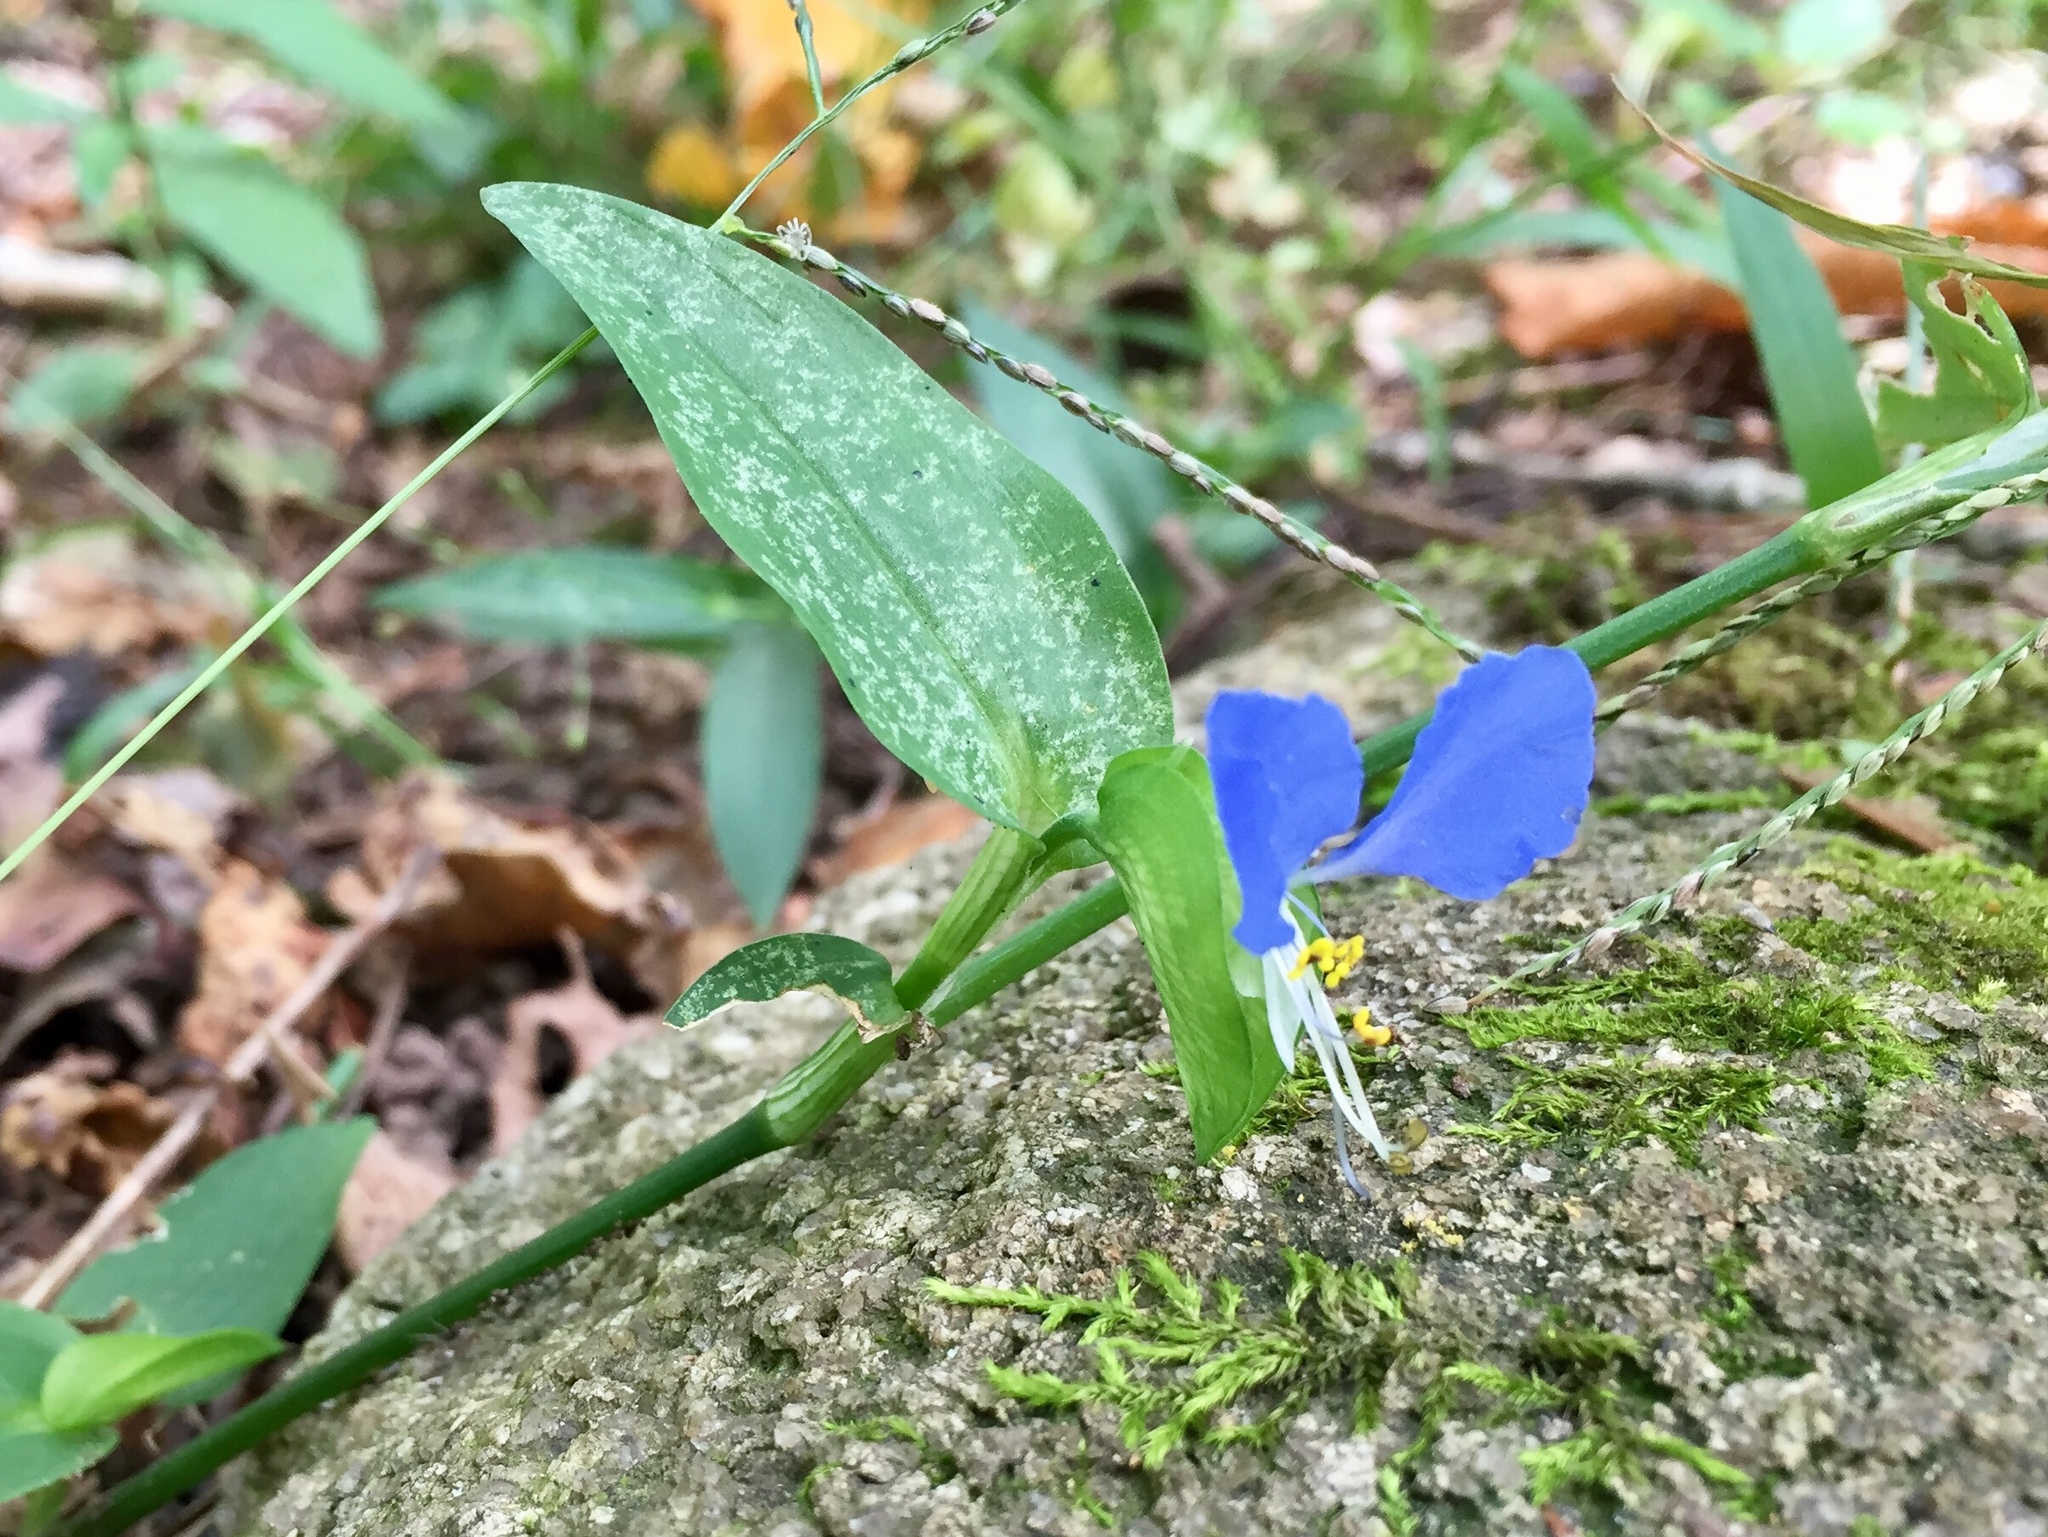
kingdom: Plantae
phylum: Tracheophyta
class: Liliopsida
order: Commelinales
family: Commelinaceae
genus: Commelina
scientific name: Commelina communis
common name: Asiatic dayflower
